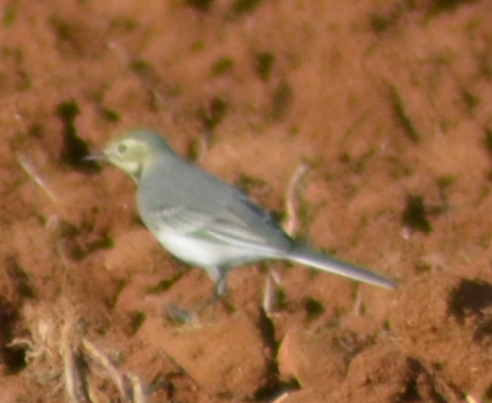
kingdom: Animalia
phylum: Chordata
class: Aves
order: Passeriformes
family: Motacillidae
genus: Motacilla
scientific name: Motacilla alba
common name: White wagtail
